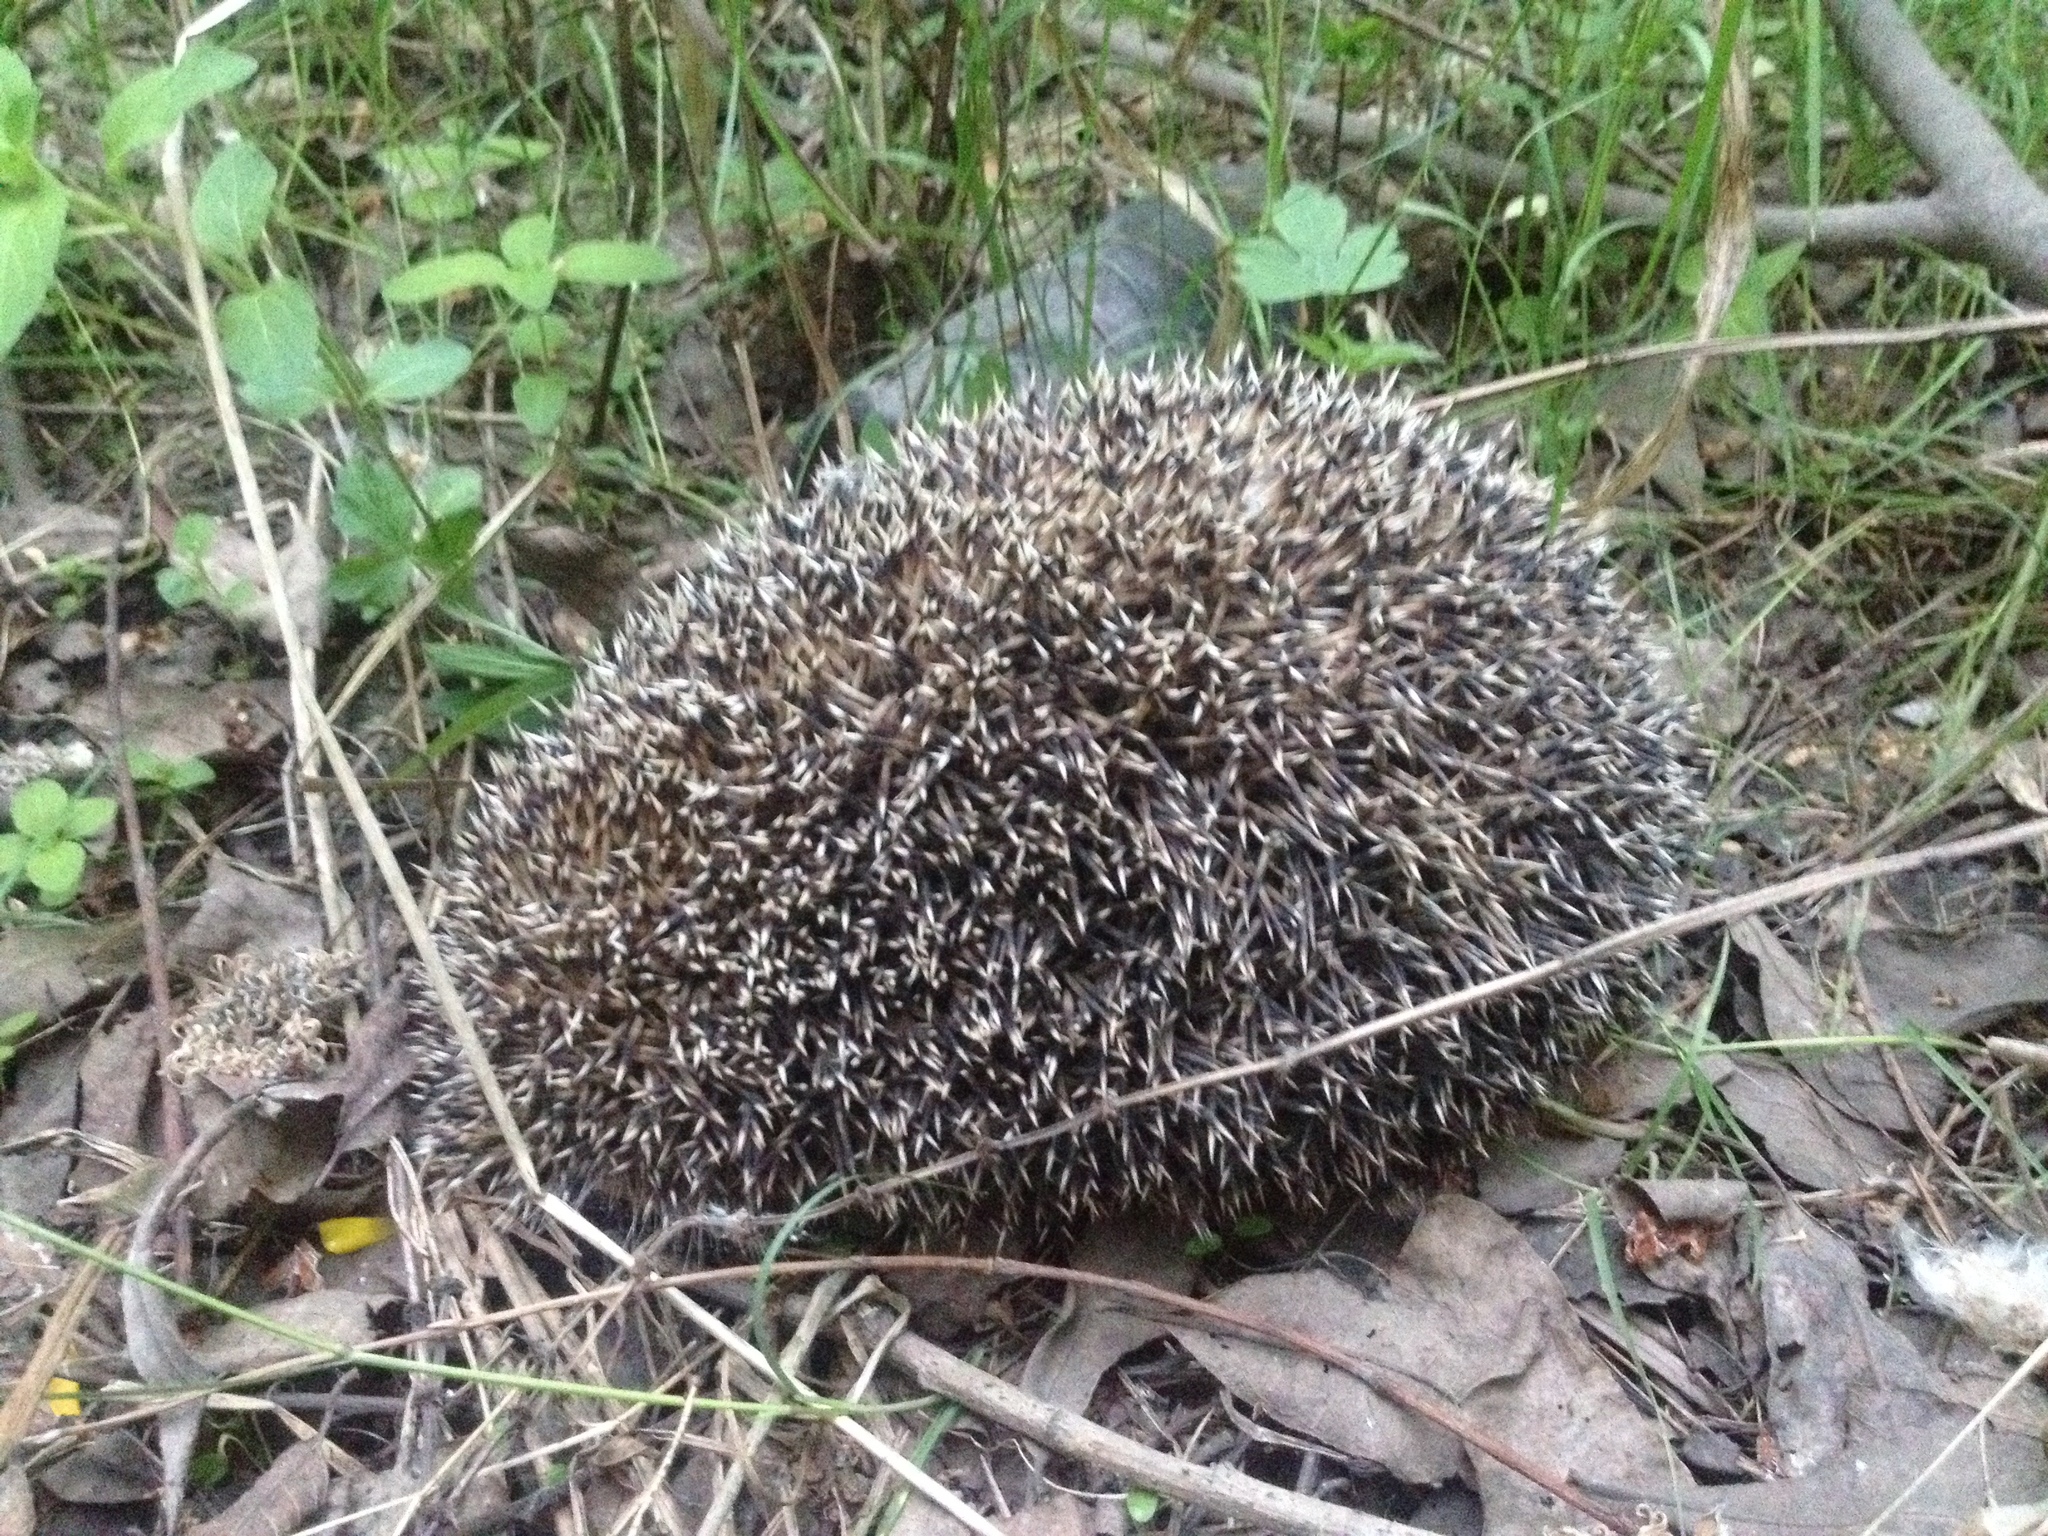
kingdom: Animalia
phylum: Chordata
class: Mammalia
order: Erinaceomorpha
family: Erinaceidae
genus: Erinaceus
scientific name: Erinaceus roumanicus
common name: Northern white-breasted hedgehog
